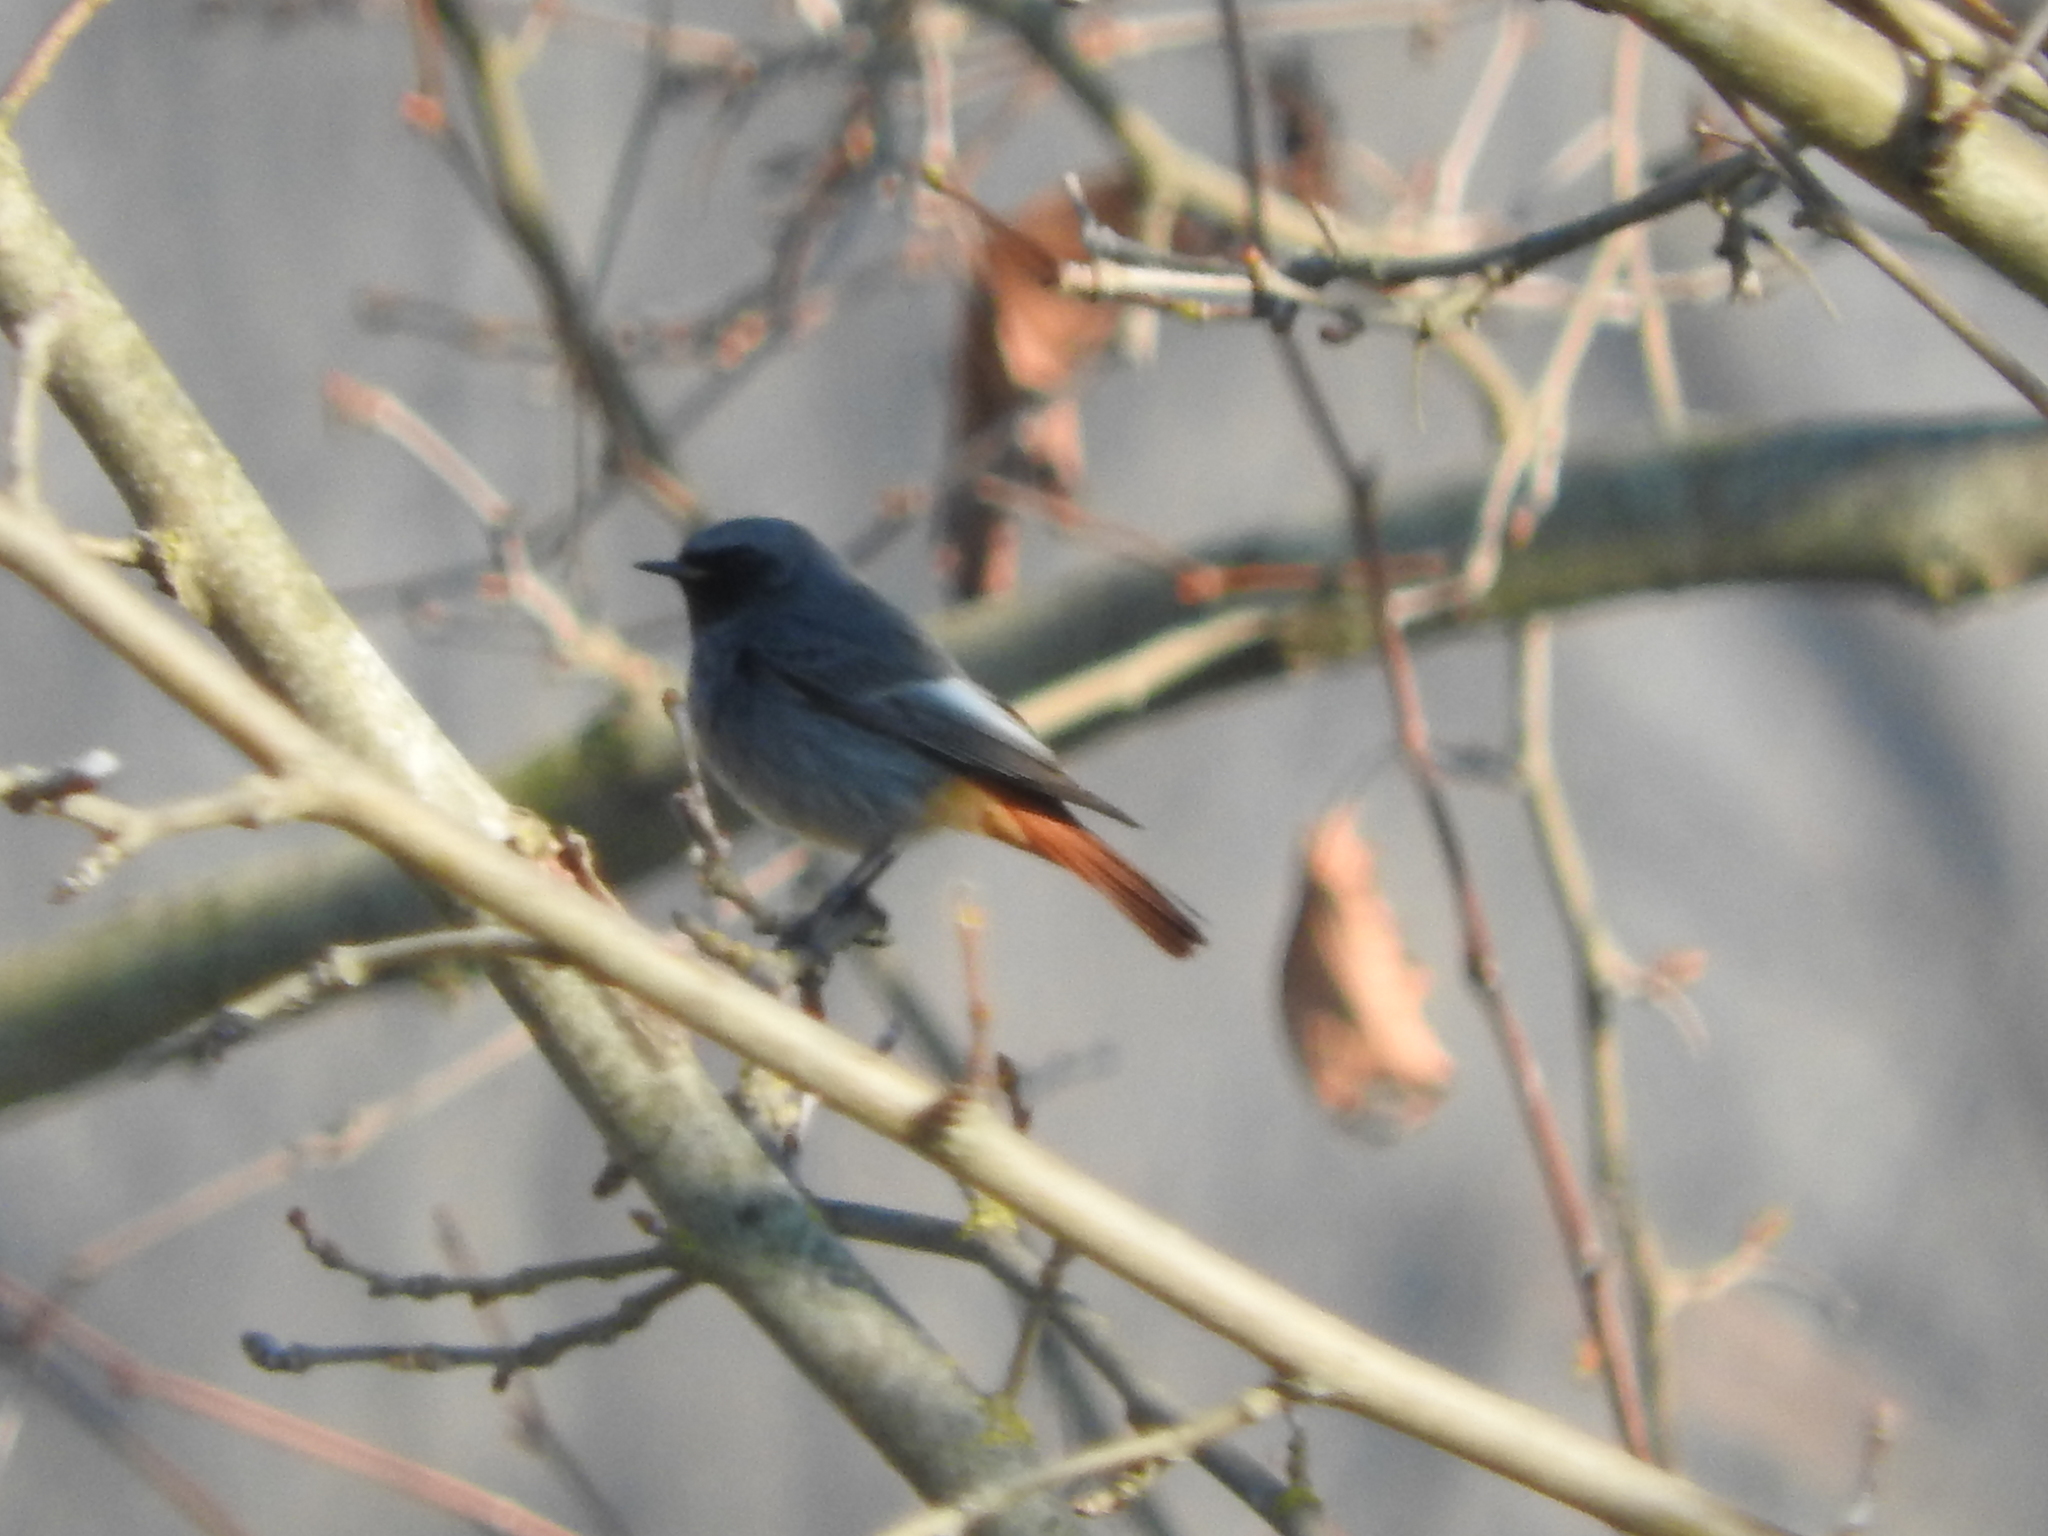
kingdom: Animalia
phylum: Chordata
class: Aves
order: Passeriformes
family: Muscicapidae
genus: Phoenicurus
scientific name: Phoenicurus ochruros
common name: Black redstart
